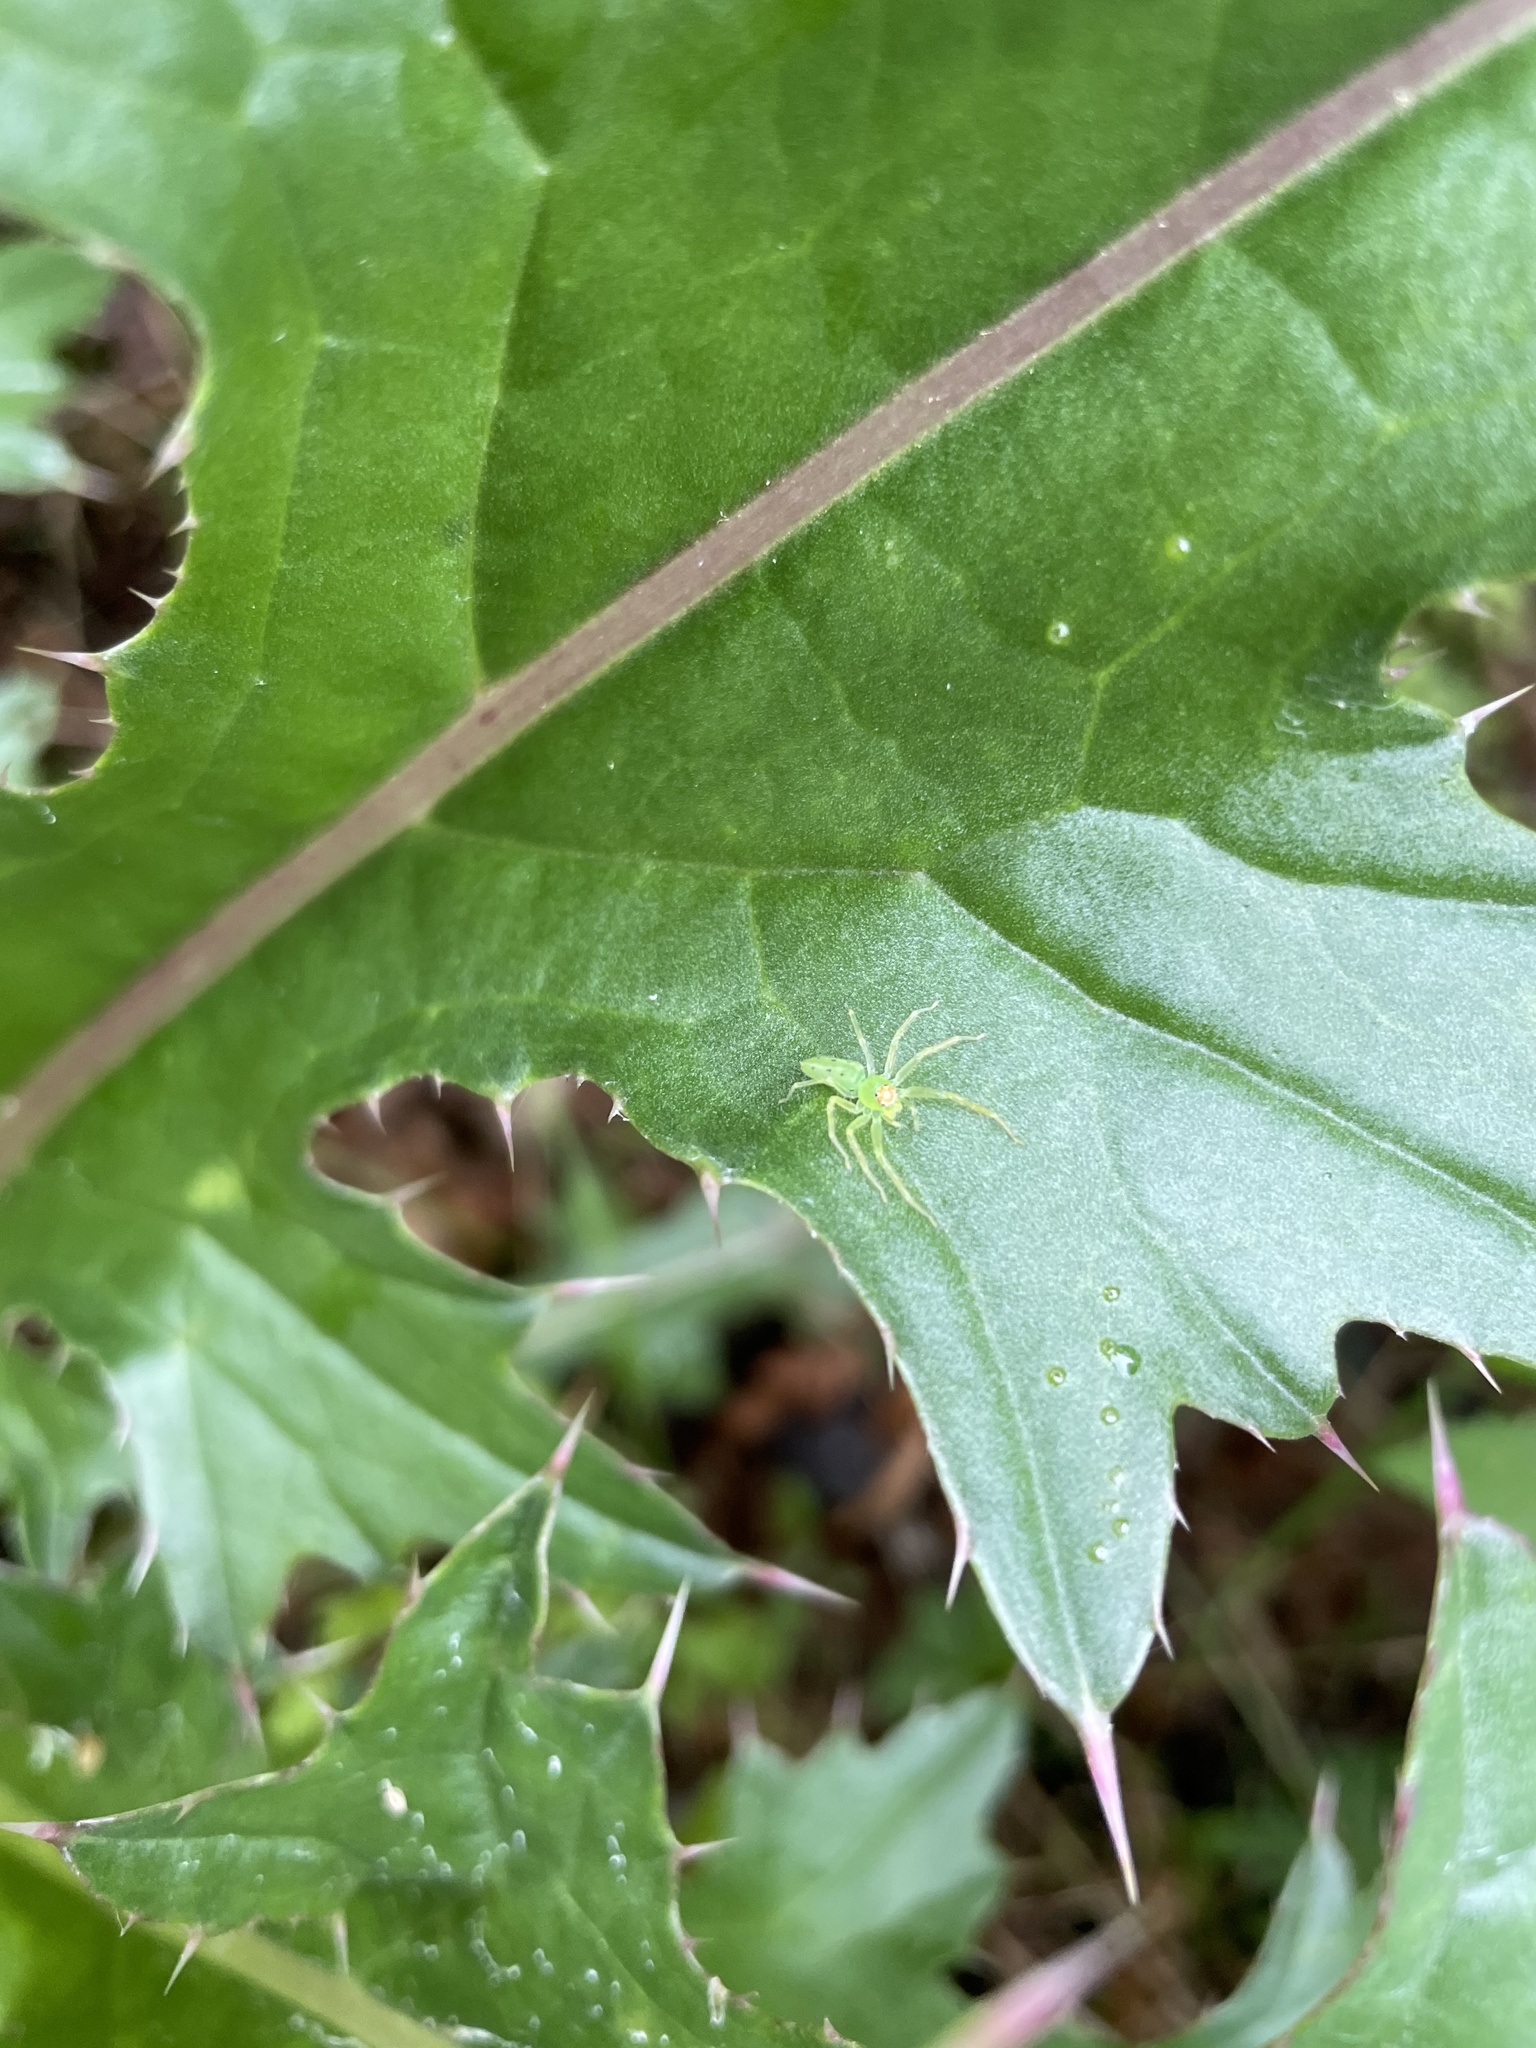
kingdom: Animalia
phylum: Arthropoda
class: Arachnida
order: Araneae
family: Salticidae
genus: Lyssomanes
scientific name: Lyssomanes viridis
